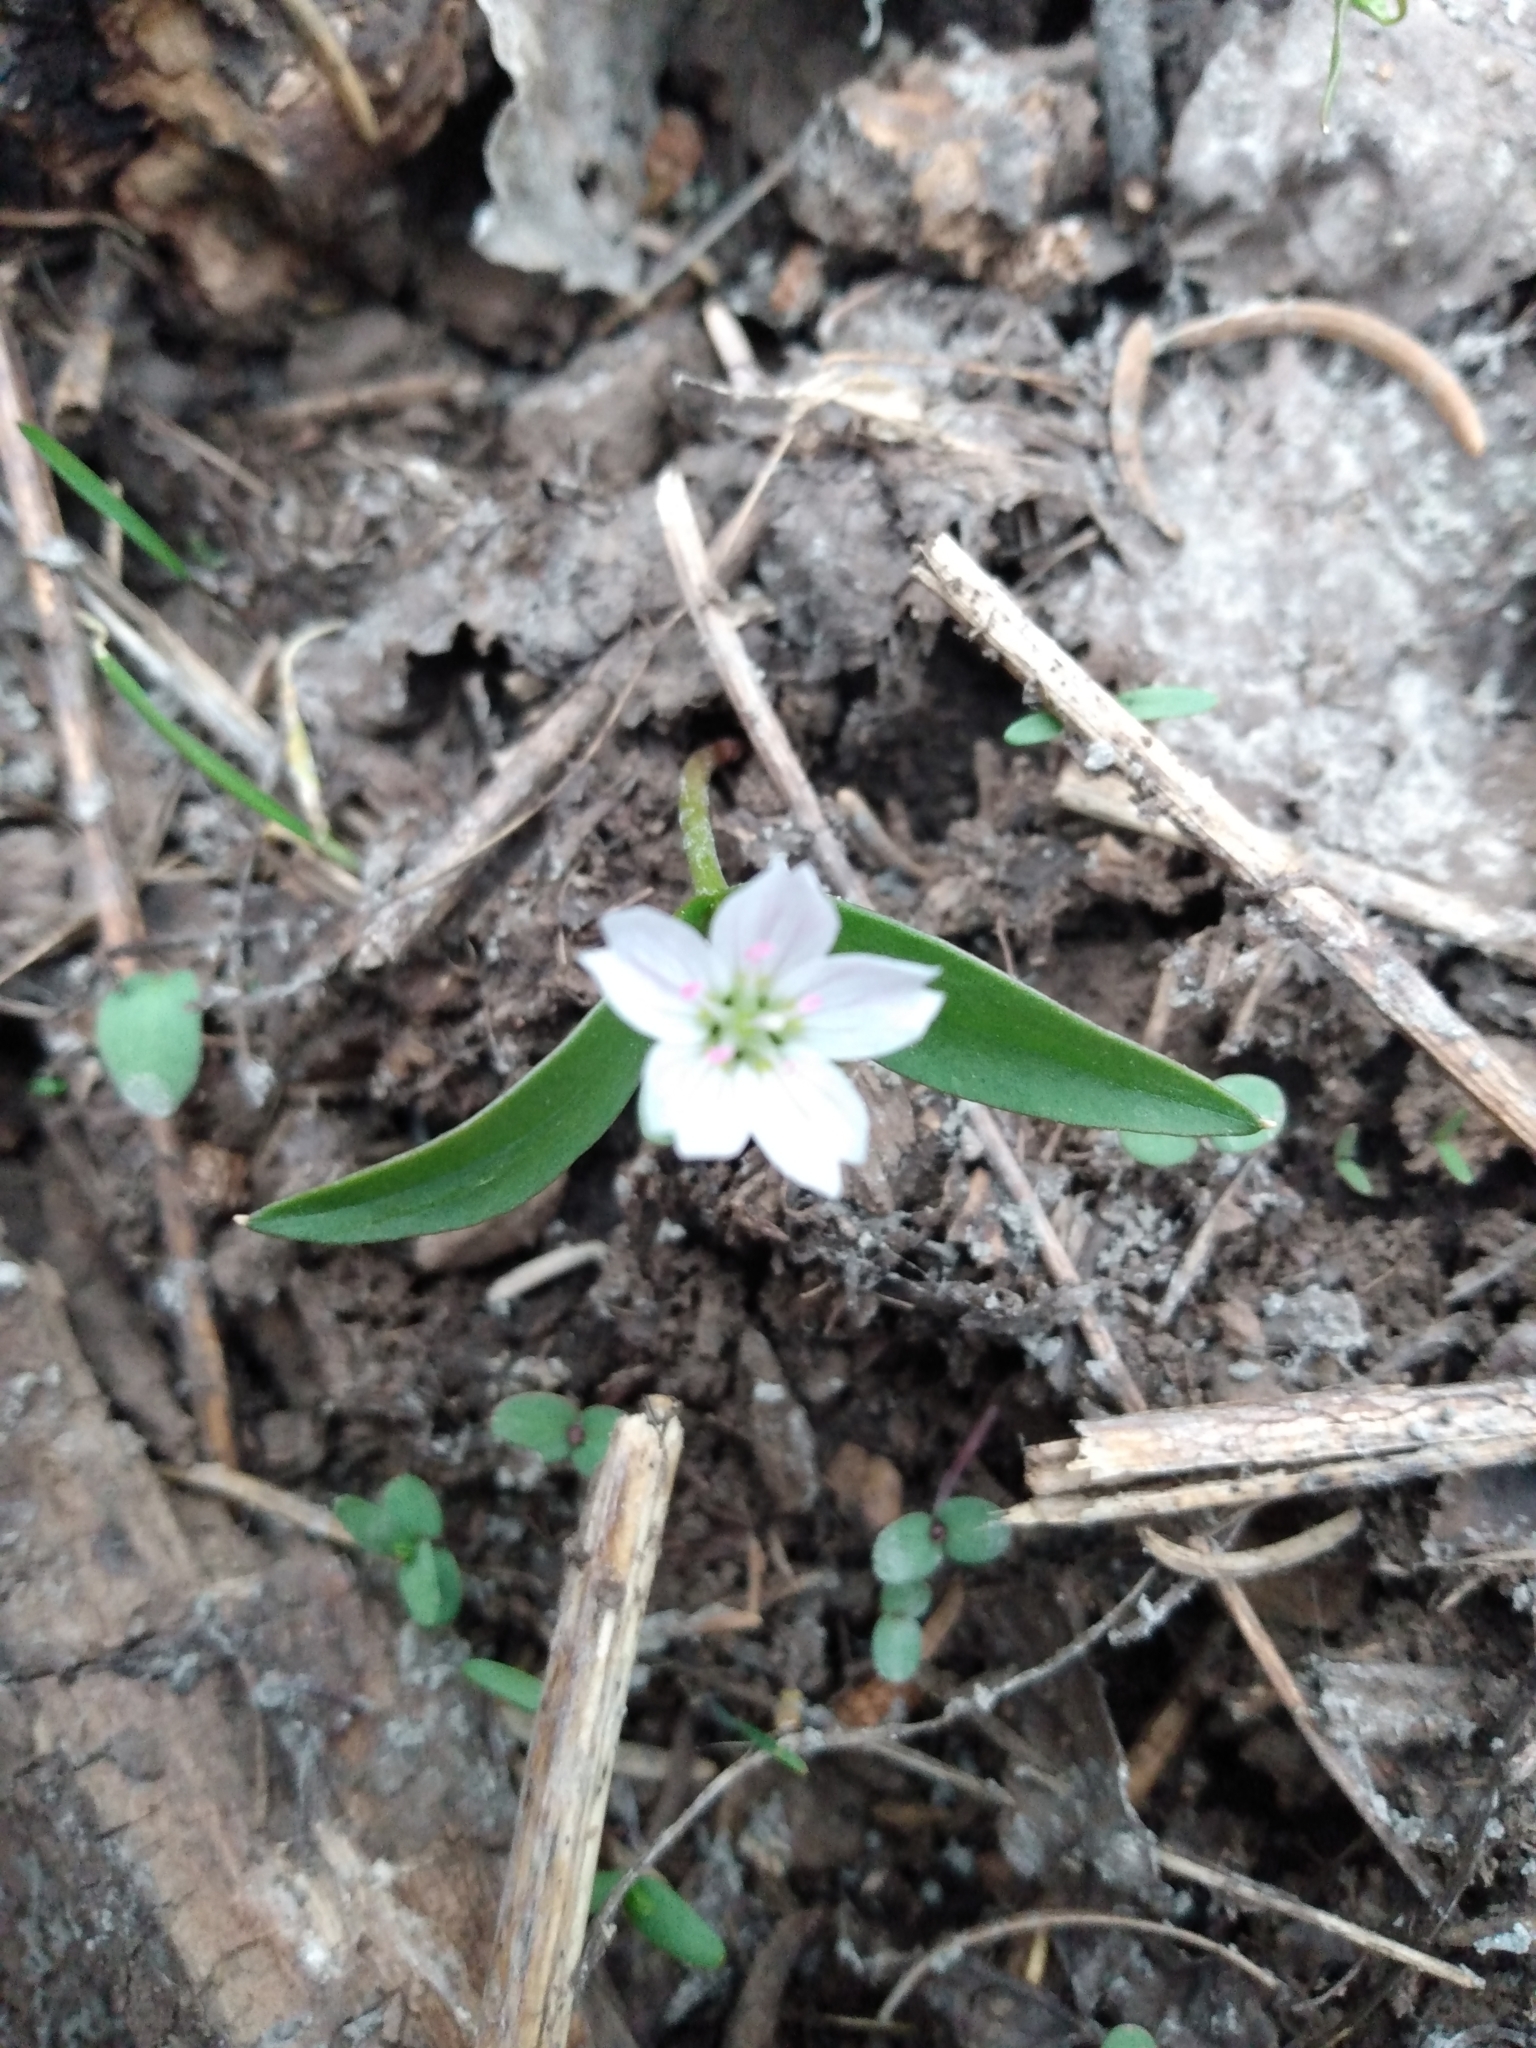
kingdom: Plantae
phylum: Tracheophyta
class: Magnoliopsida
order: Caryophyllales
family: Montiaceae
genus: Claytonia
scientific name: Claytonia lanceolata
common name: Western spring-beauty
